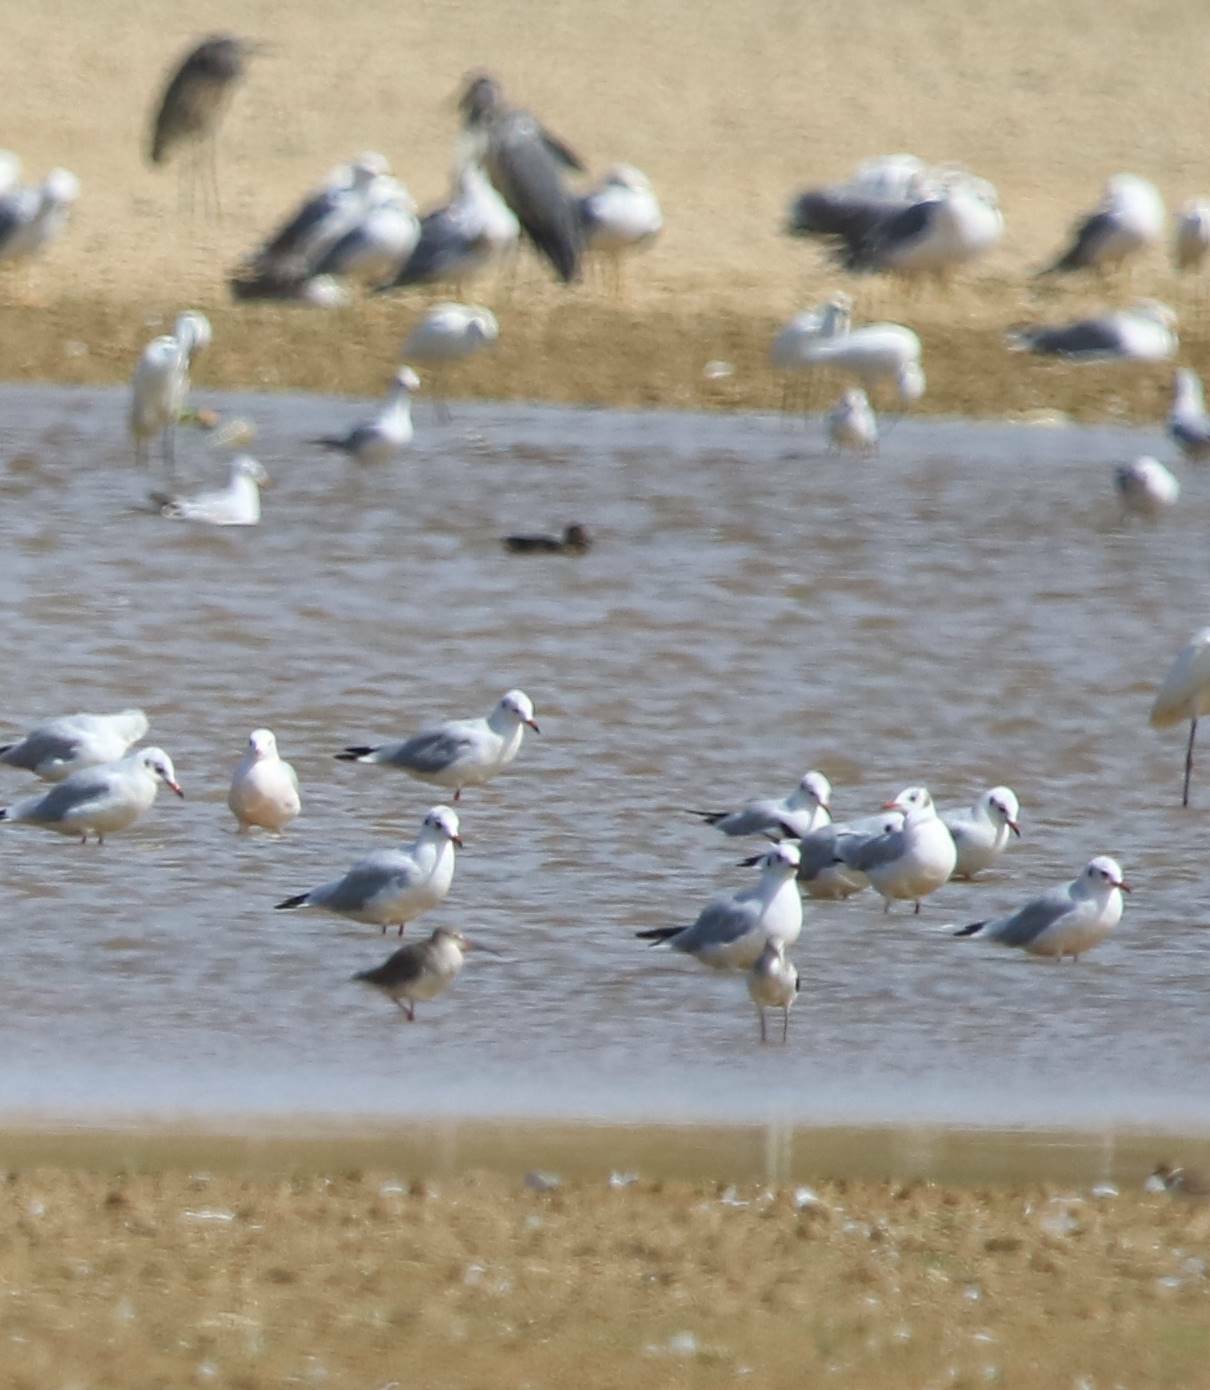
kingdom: Animalia
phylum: Chordata
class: Aves
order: Charadriiformes
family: Laridae
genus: Chroicocephalus
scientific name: Chroicocephalus ridibundus
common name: Black-headed gull
